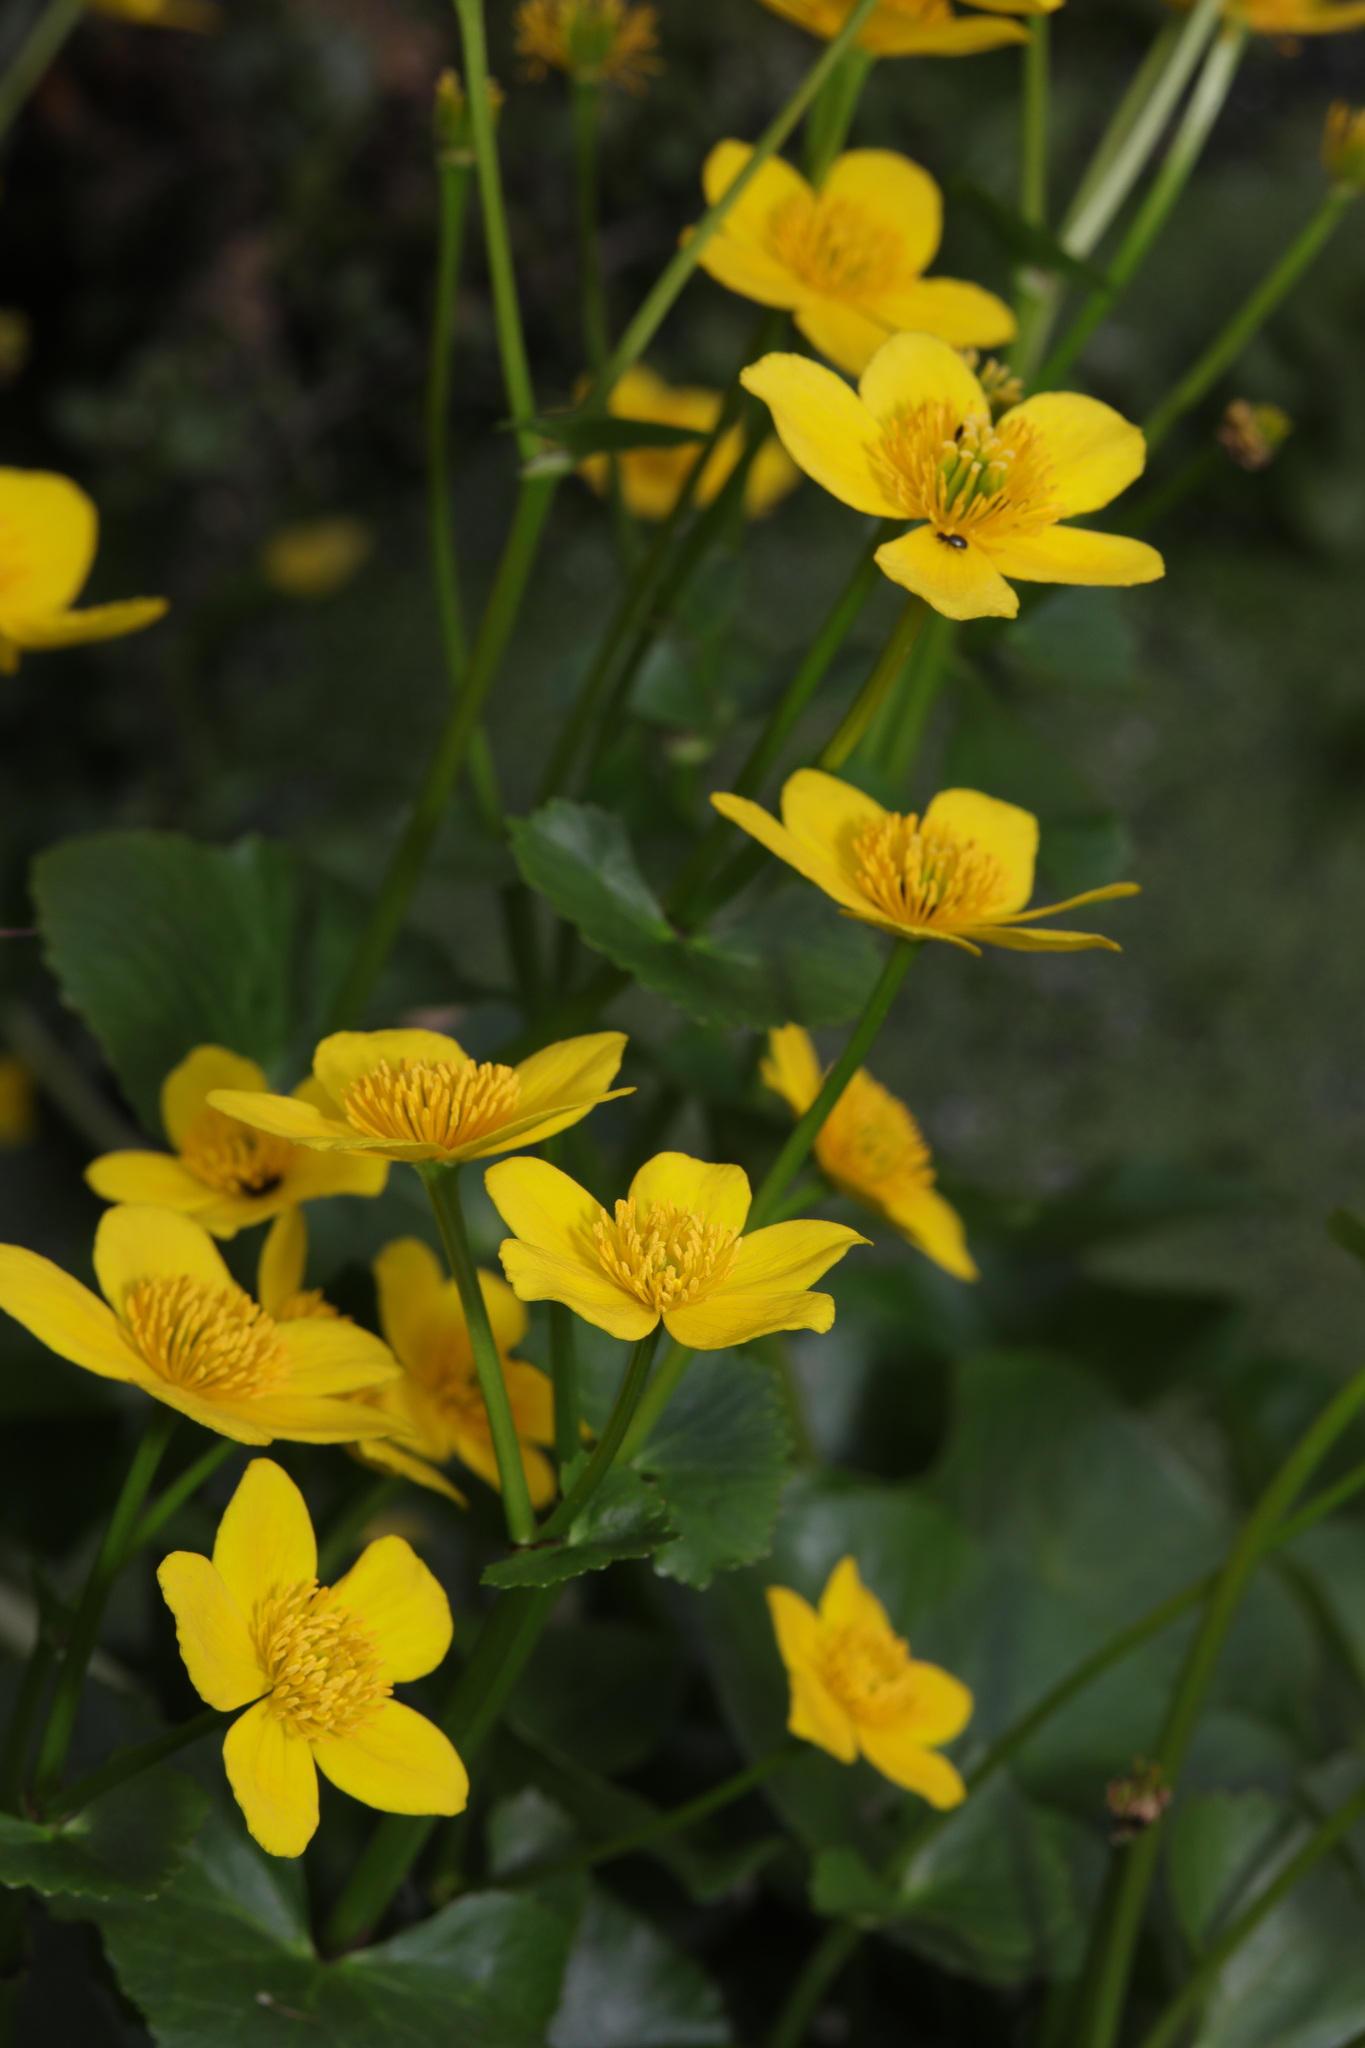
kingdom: Plantae
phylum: Tracheophyta
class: Magnoliopsida
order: Ranunculales
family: Ranunculaceae
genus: Caltha
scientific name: Caltha palustris
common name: Marsh marigold
